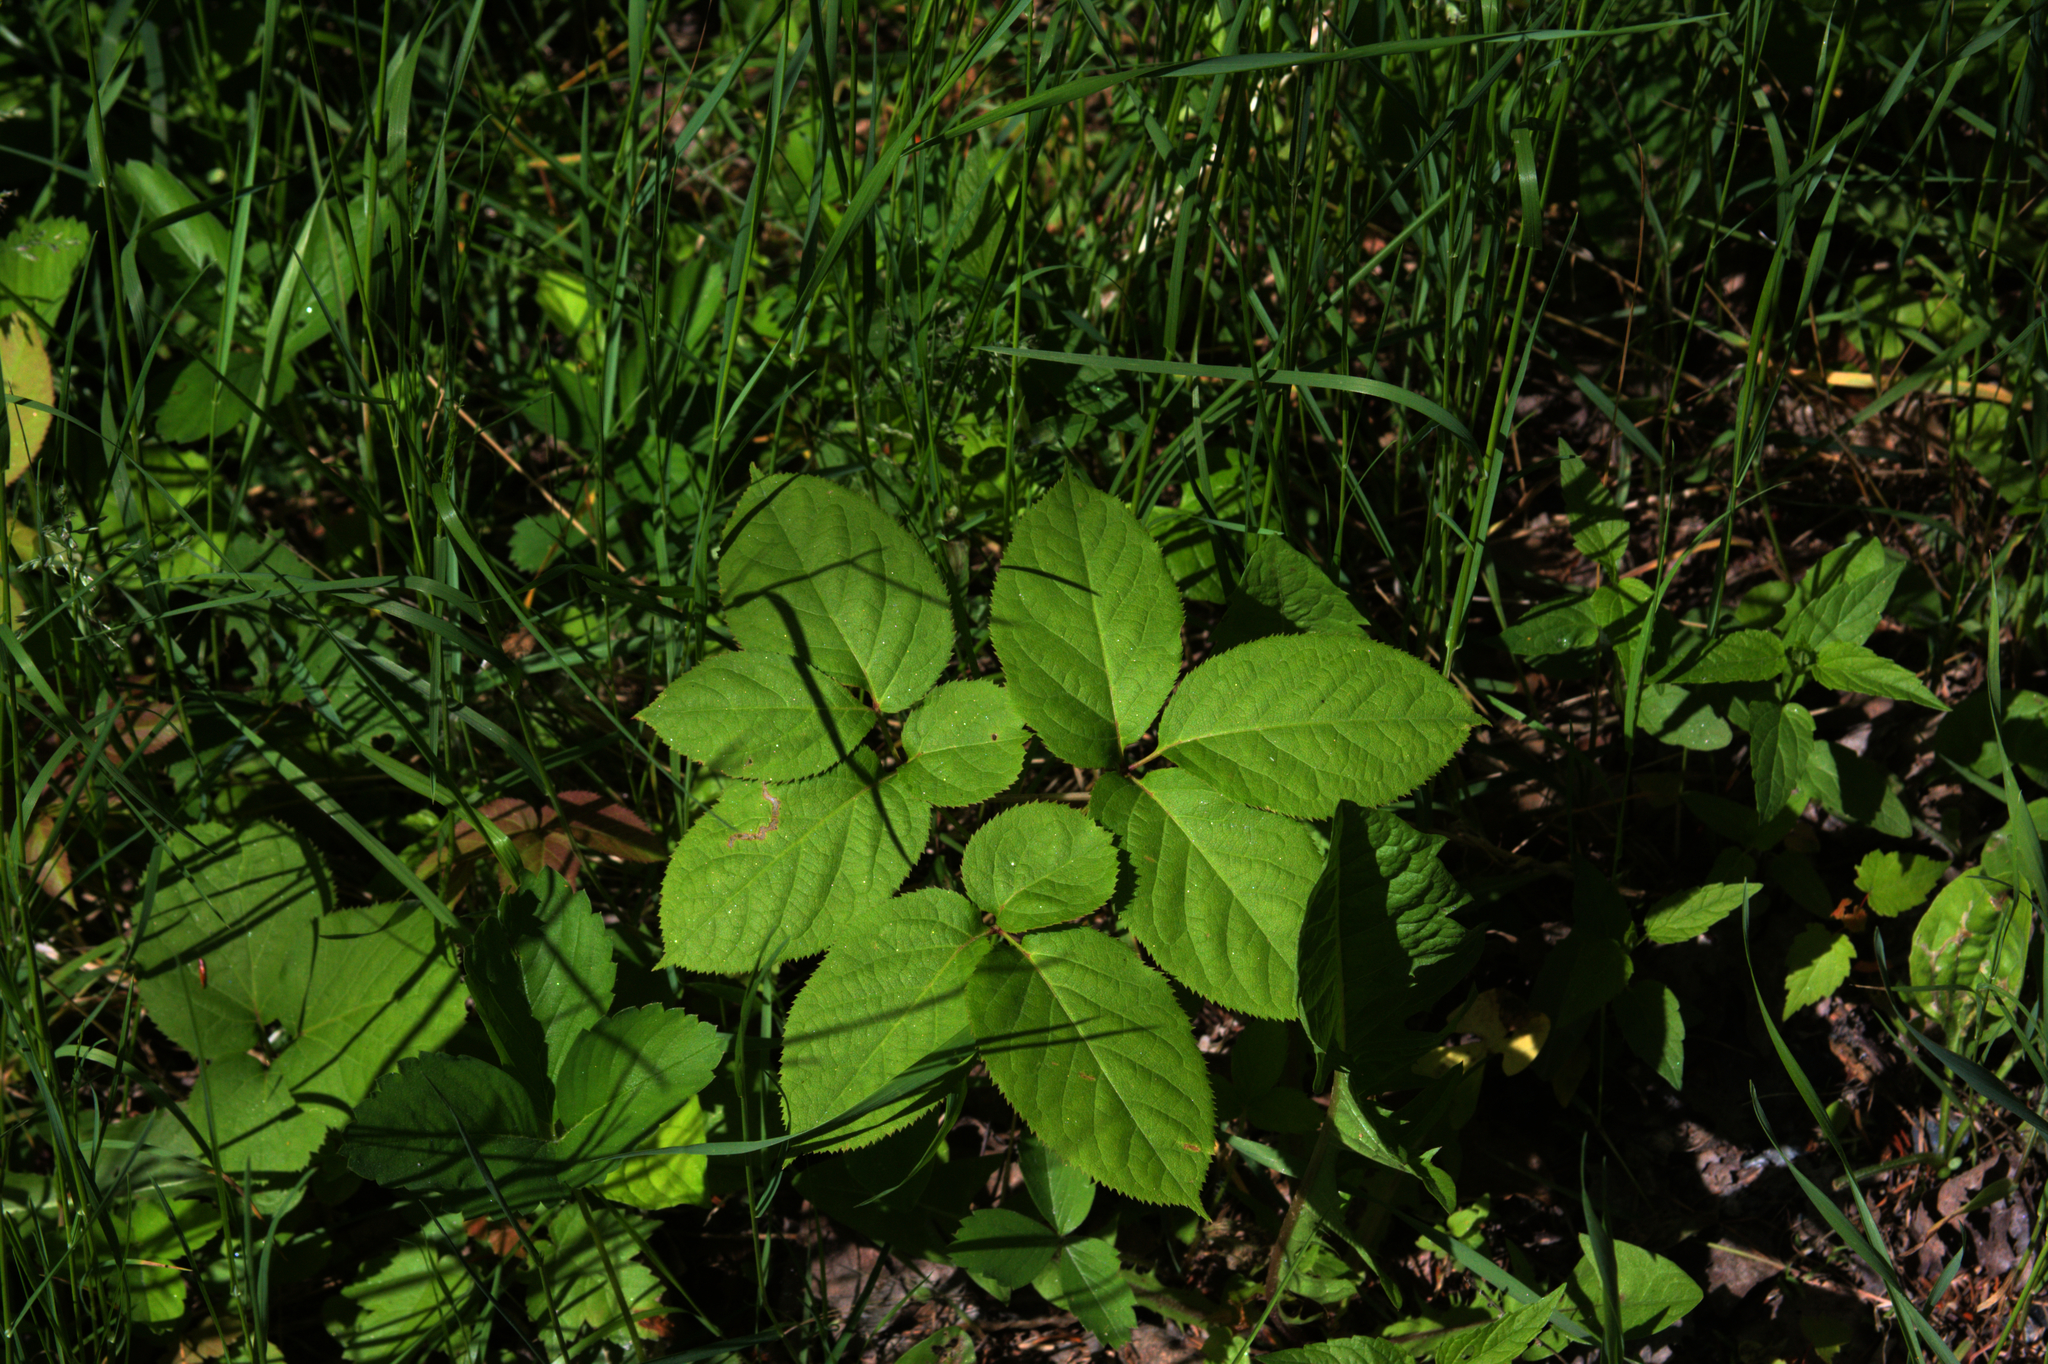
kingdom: Plantae
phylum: Tracheophyta
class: Magnoliopsida
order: Apiales
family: Araliaceae
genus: Aralia
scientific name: Aralia nudicaulis
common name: Wild sarsaparilla
